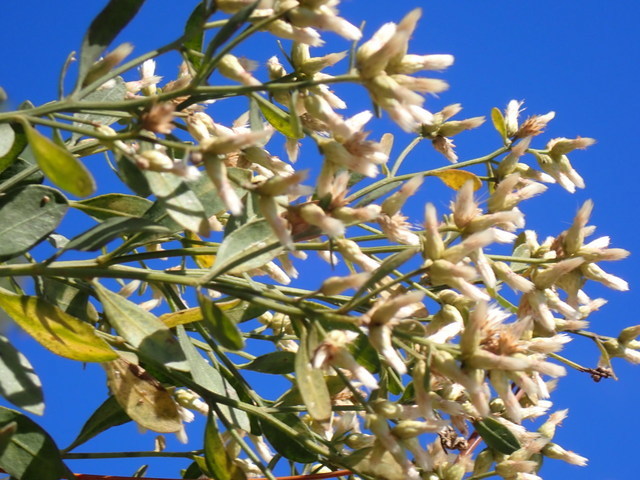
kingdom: Plantae
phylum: Tracheophyta
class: Magnoliopsida
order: Asterales
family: Asteraceae
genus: Baccharis
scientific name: Baccharis halimifolia
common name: Eastern baccharis
